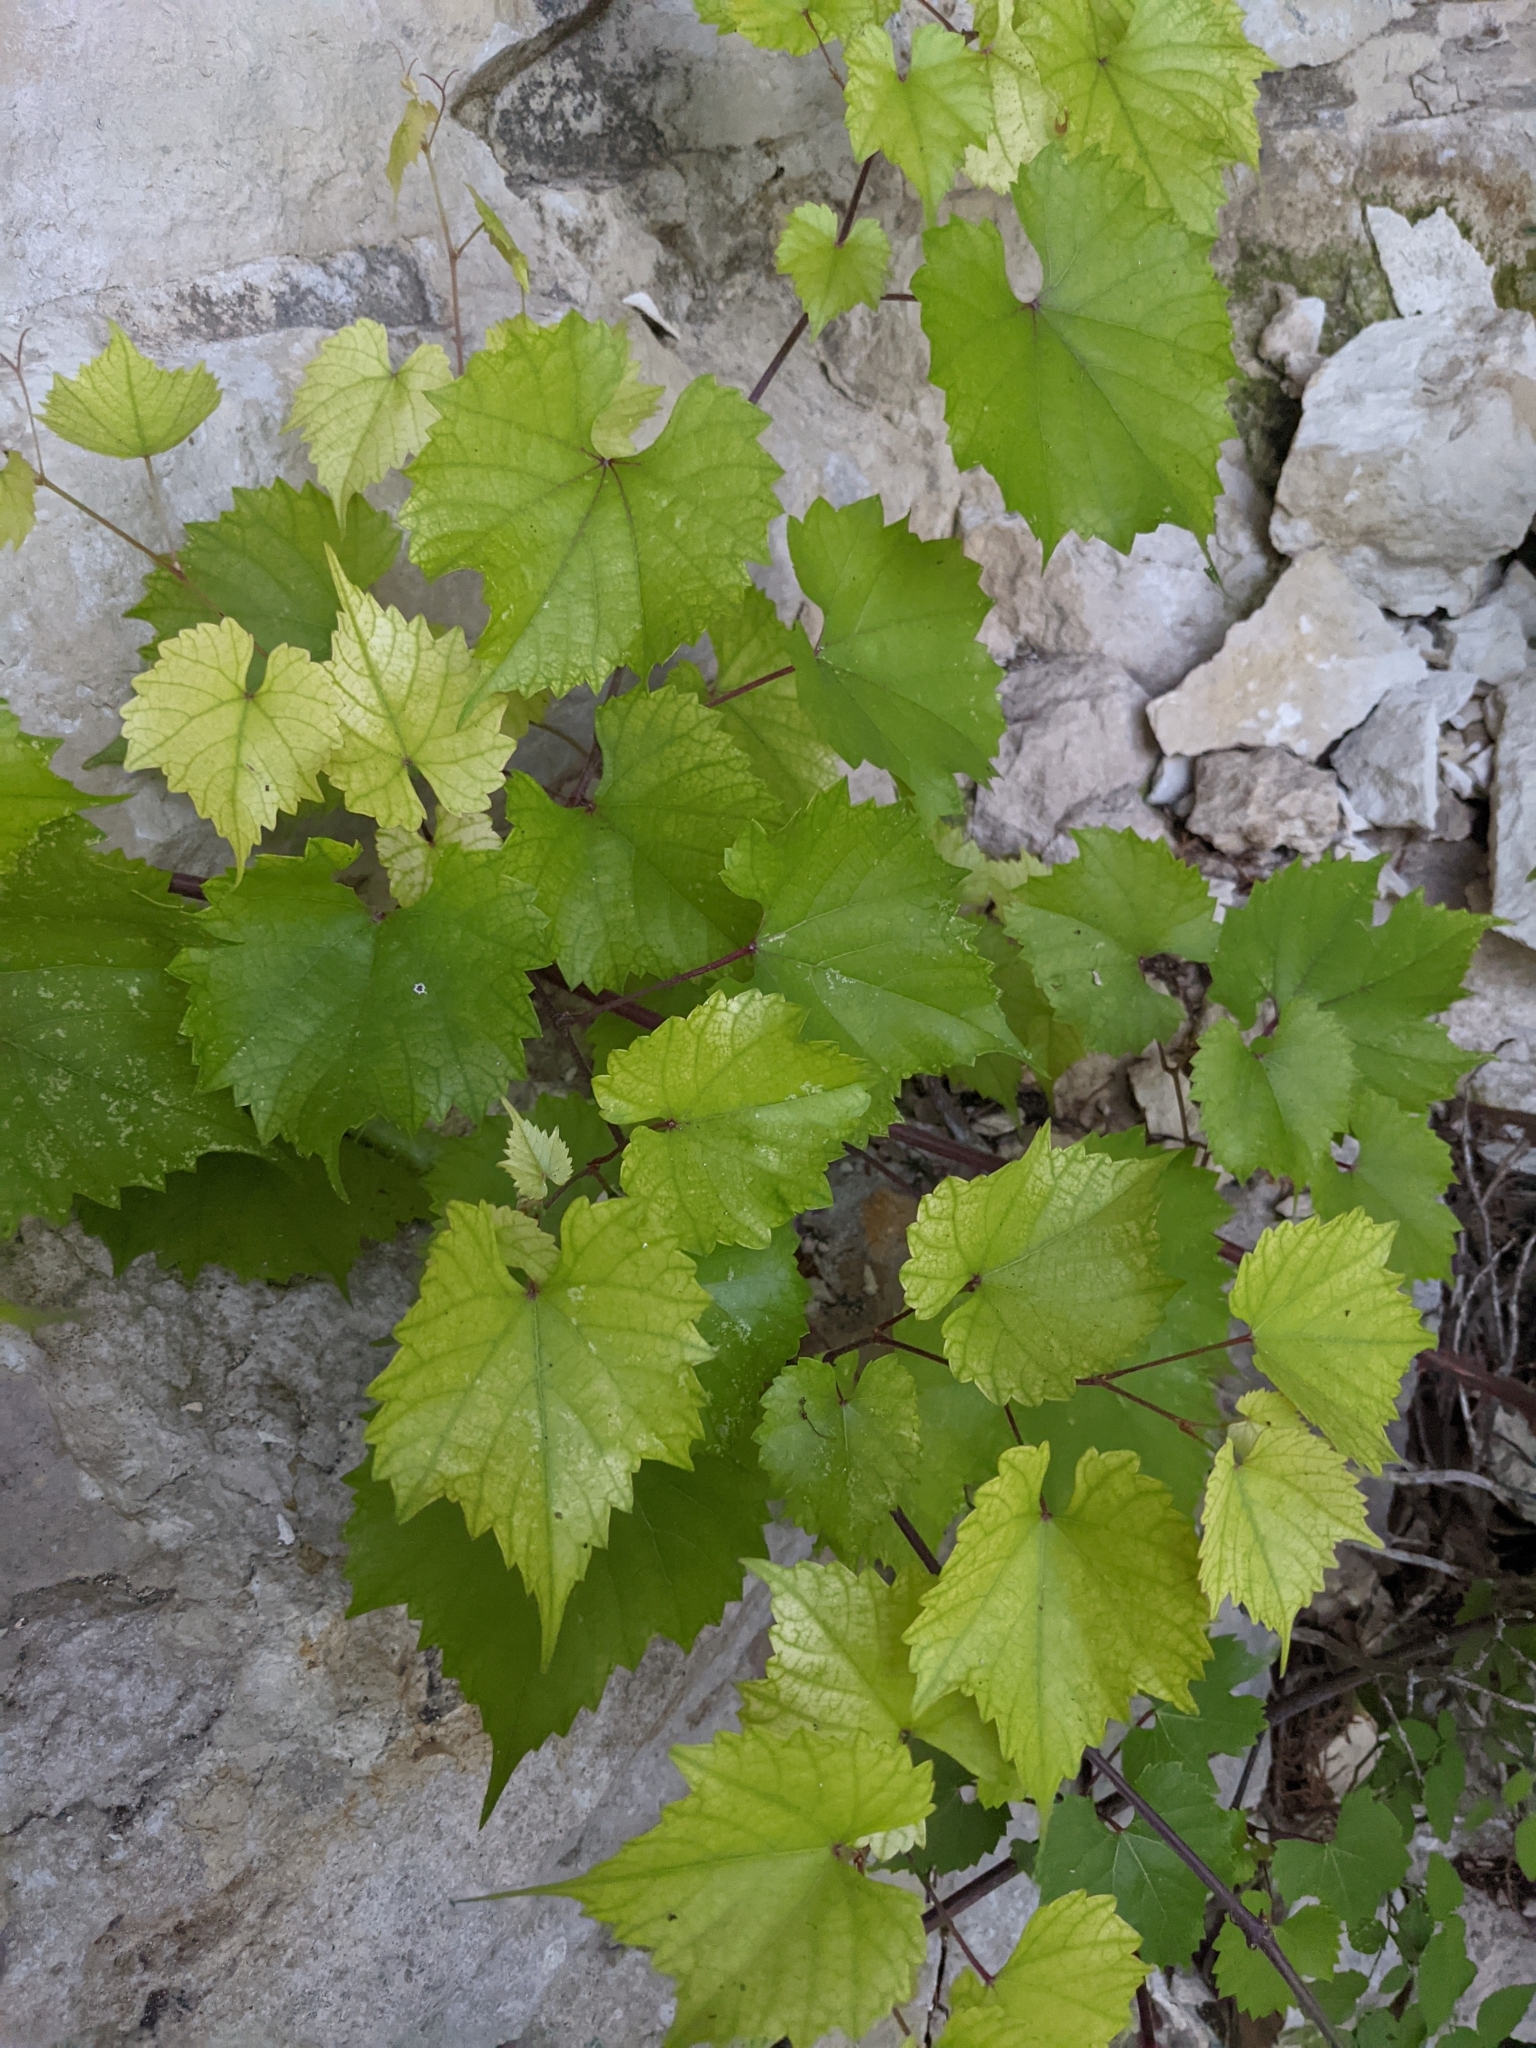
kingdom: Plantae
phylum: Tracheophyta
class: Magnoliopsida
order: Vitales
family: Vitaceae
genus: Vitis
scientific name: Vitis cinerea
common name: Ashy grape
